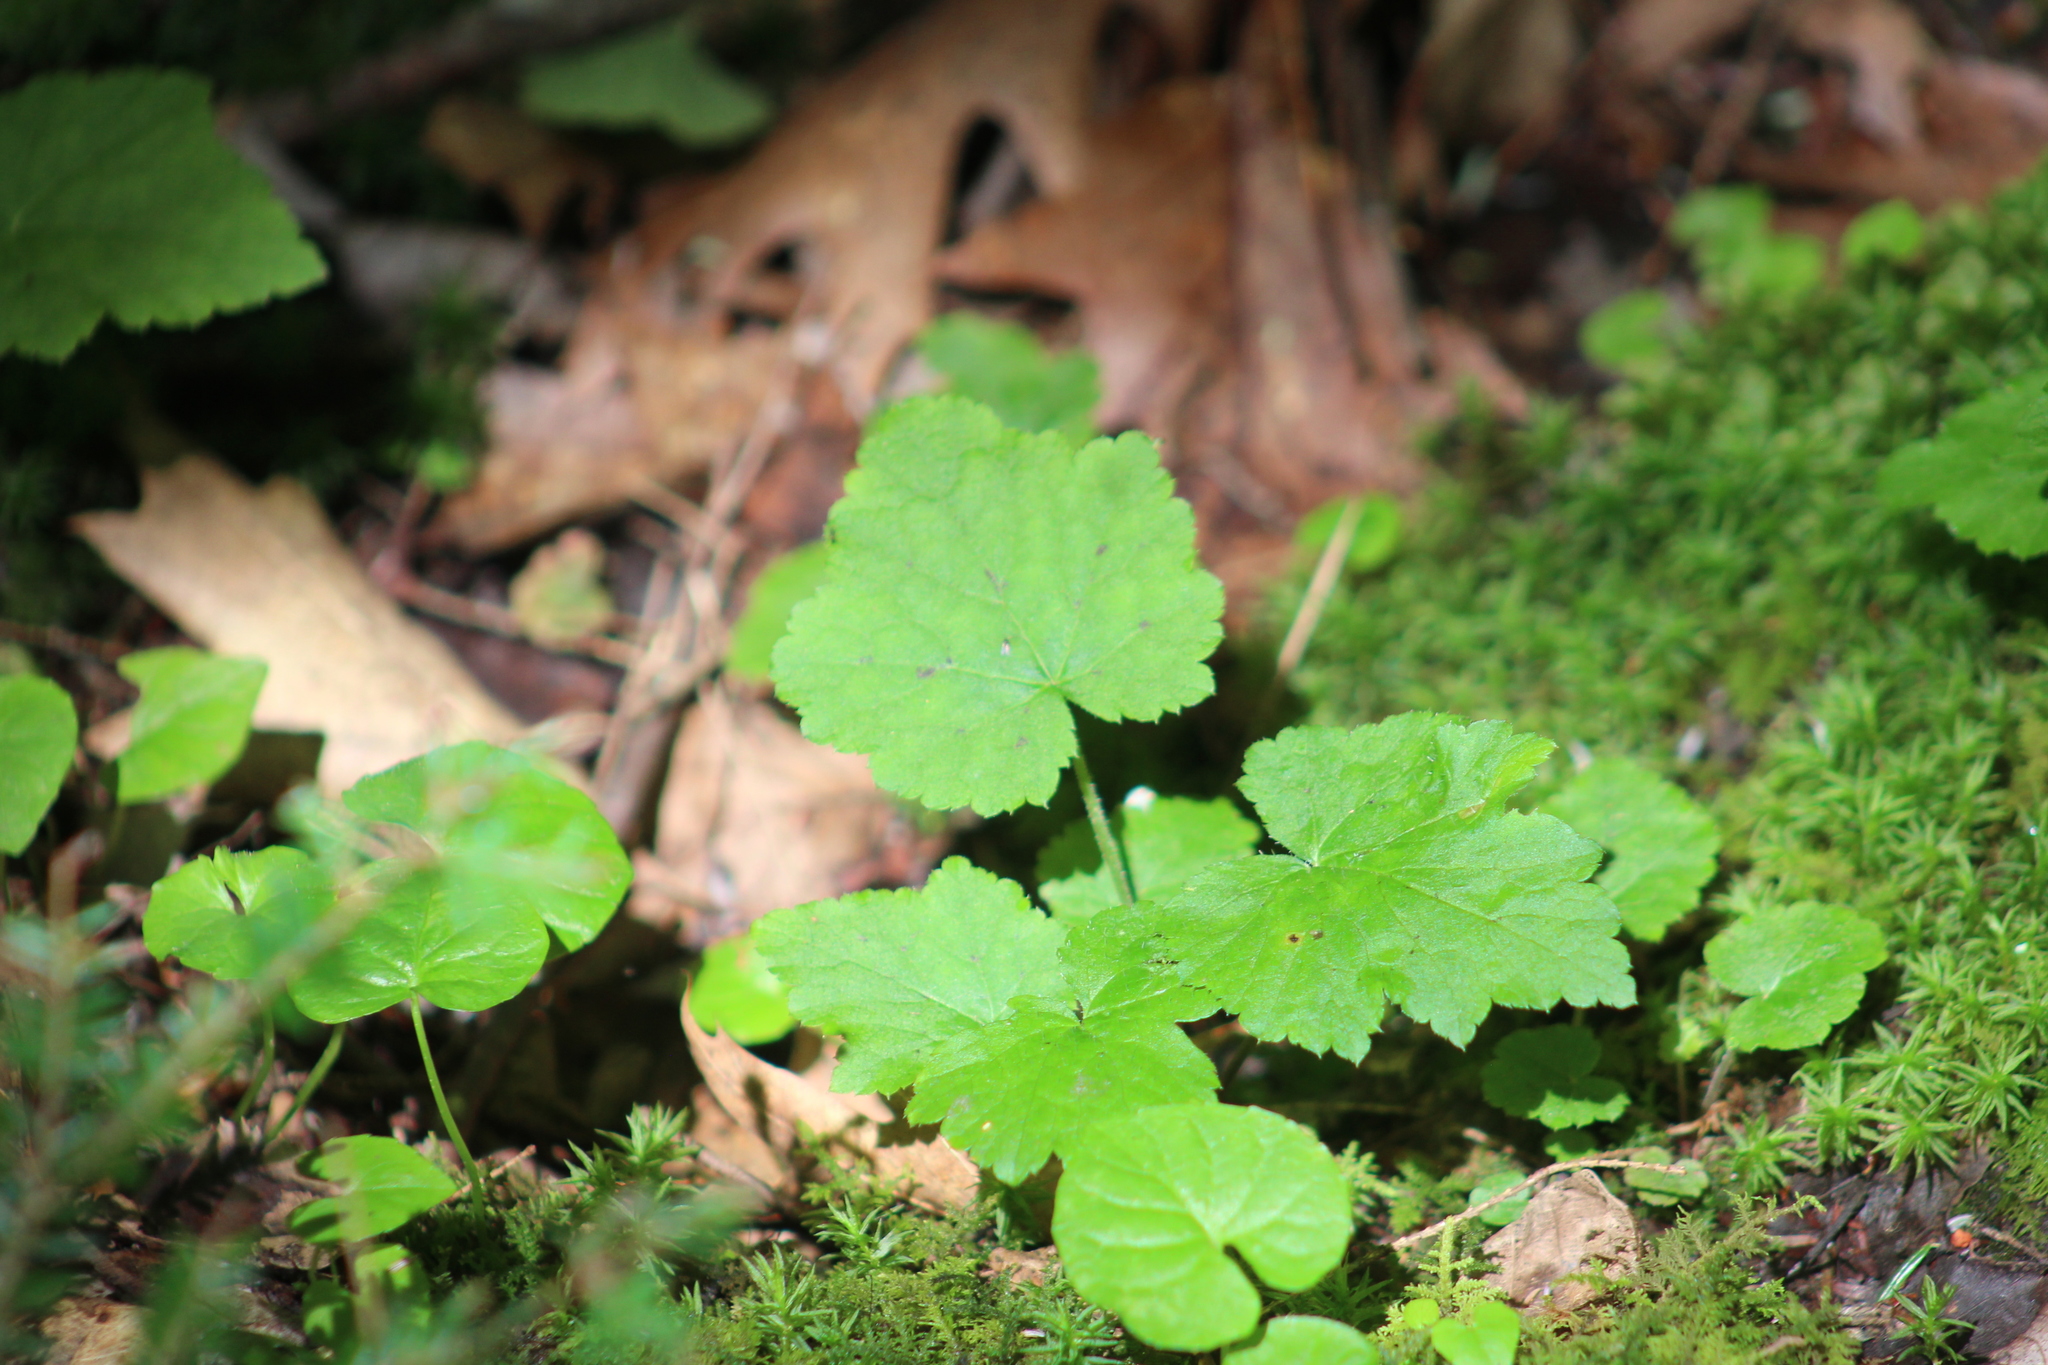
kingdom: Plantae
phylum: Tracheophyta
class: Magnoliopsida
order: Saxifragales
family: Saxifragaceae
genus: Tiarella
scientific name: Tiarella stolonifera
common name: Stoloniferous foamflower
